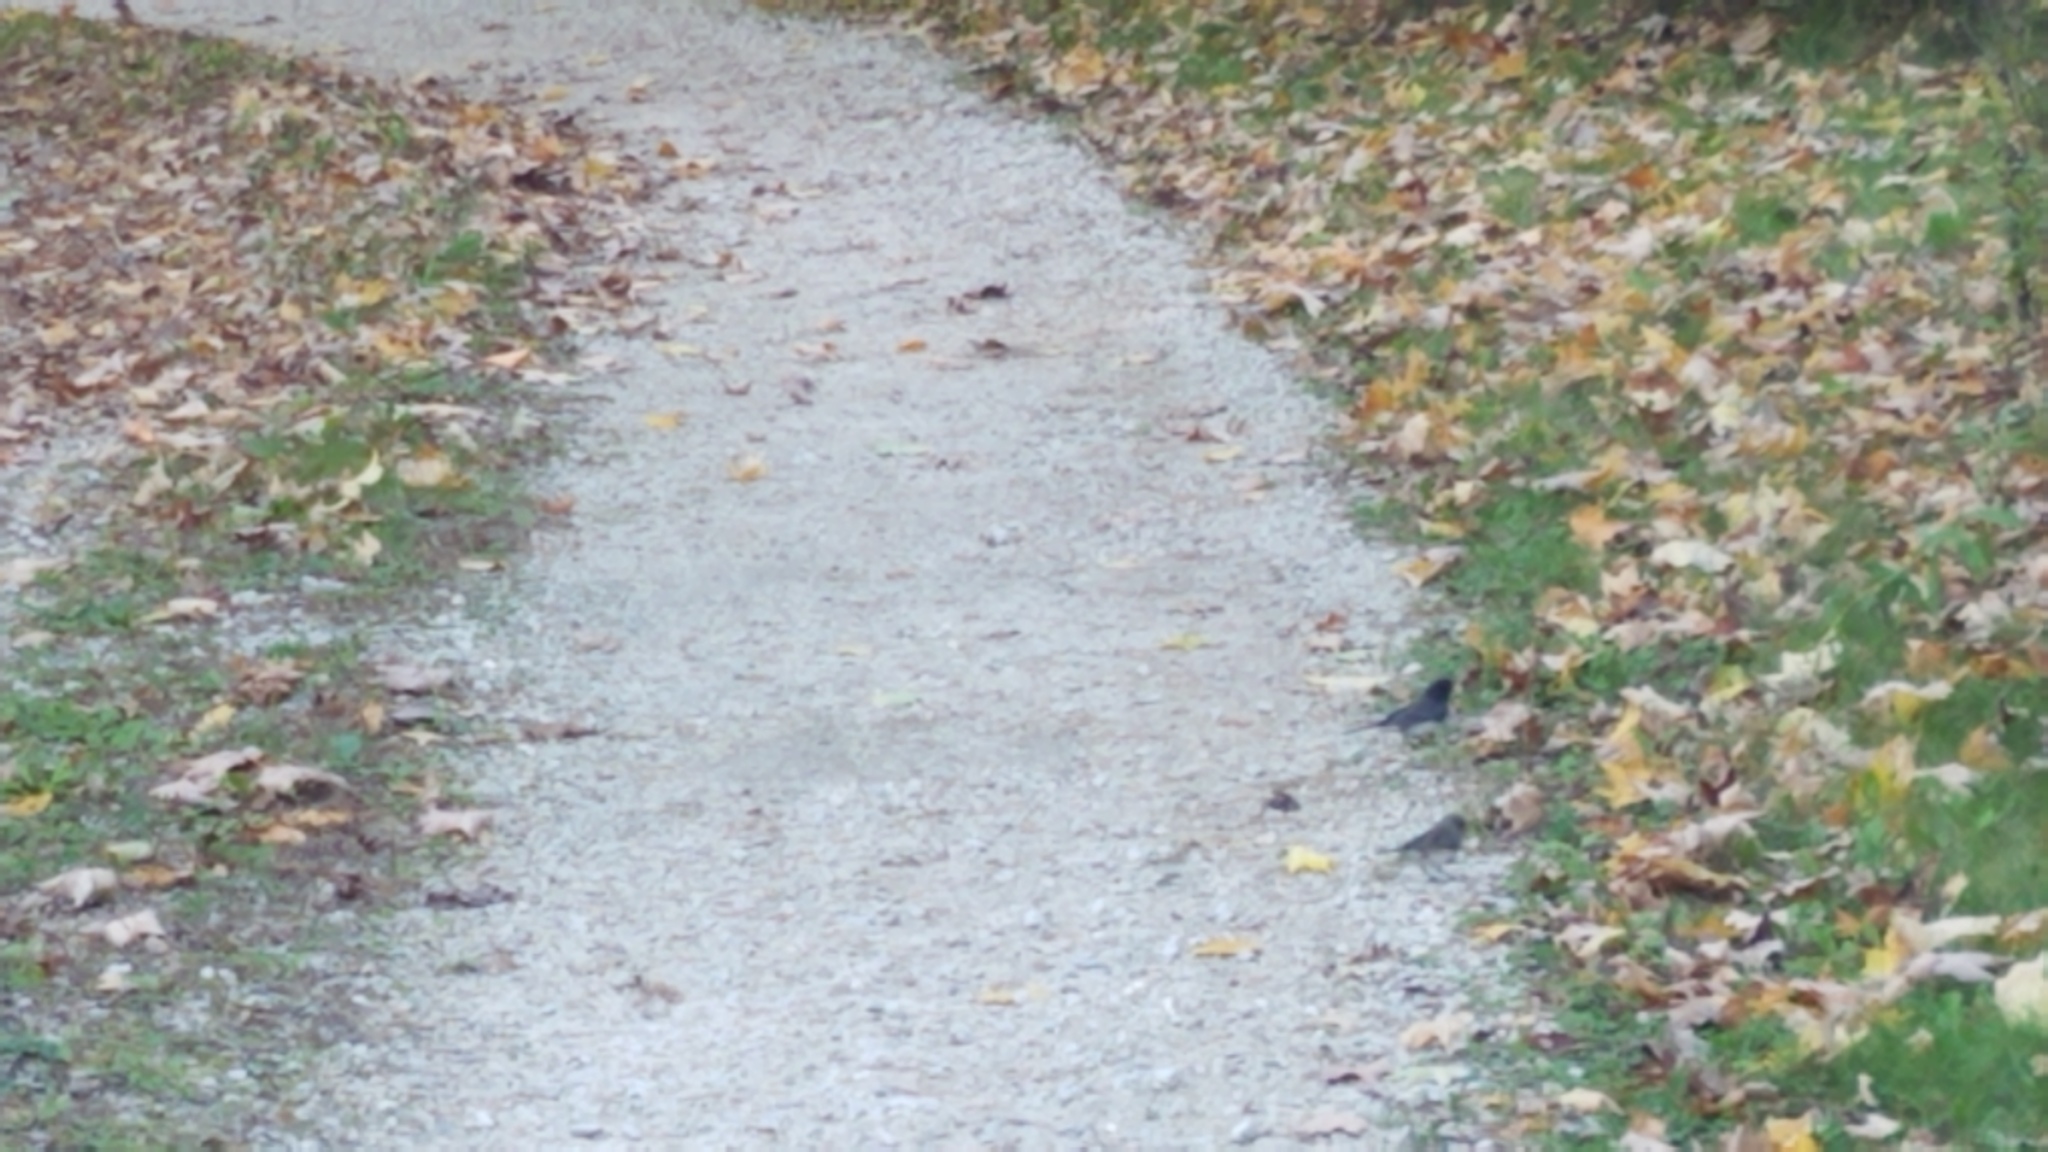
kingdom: Animalia
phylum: Chordata
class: Aves
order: Passeriformes
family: Passerellidae
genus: Junco
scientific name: Junco hyemalis
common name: Dark-eyed junco
